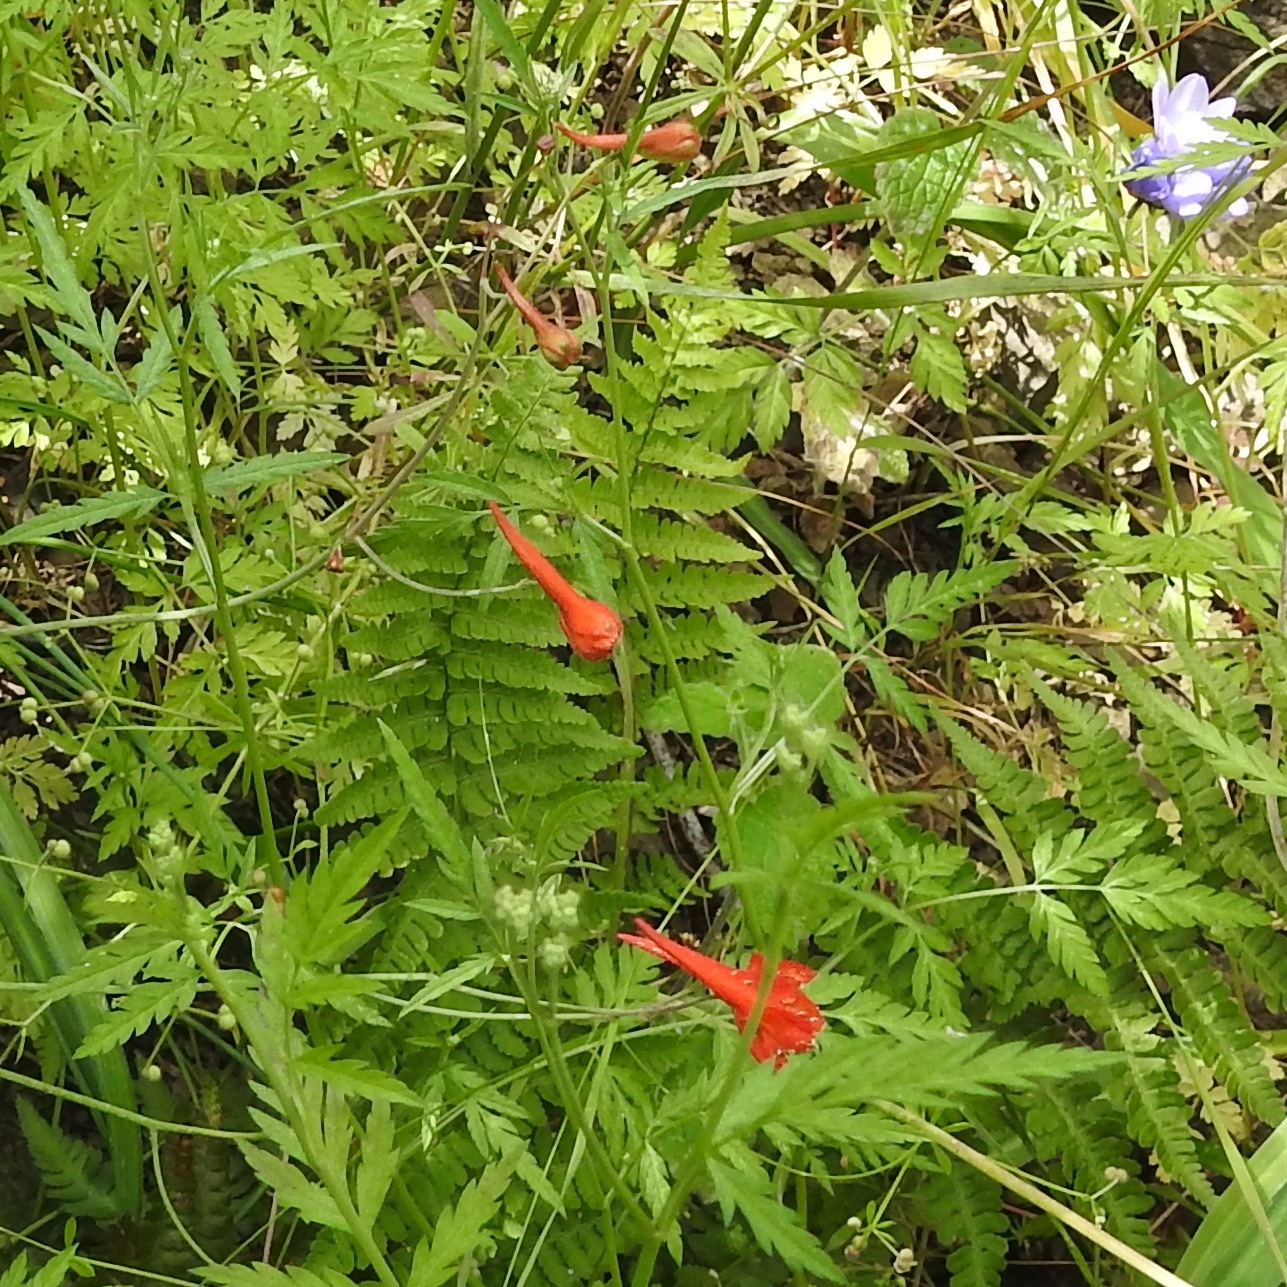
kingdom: Plantae
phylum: Tracheophyta
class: Magnoliopsida
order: Ranunculales
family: Ranunculaceae
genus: Delphinium
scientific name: Delphinium nudicaule
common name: Red larkspur
